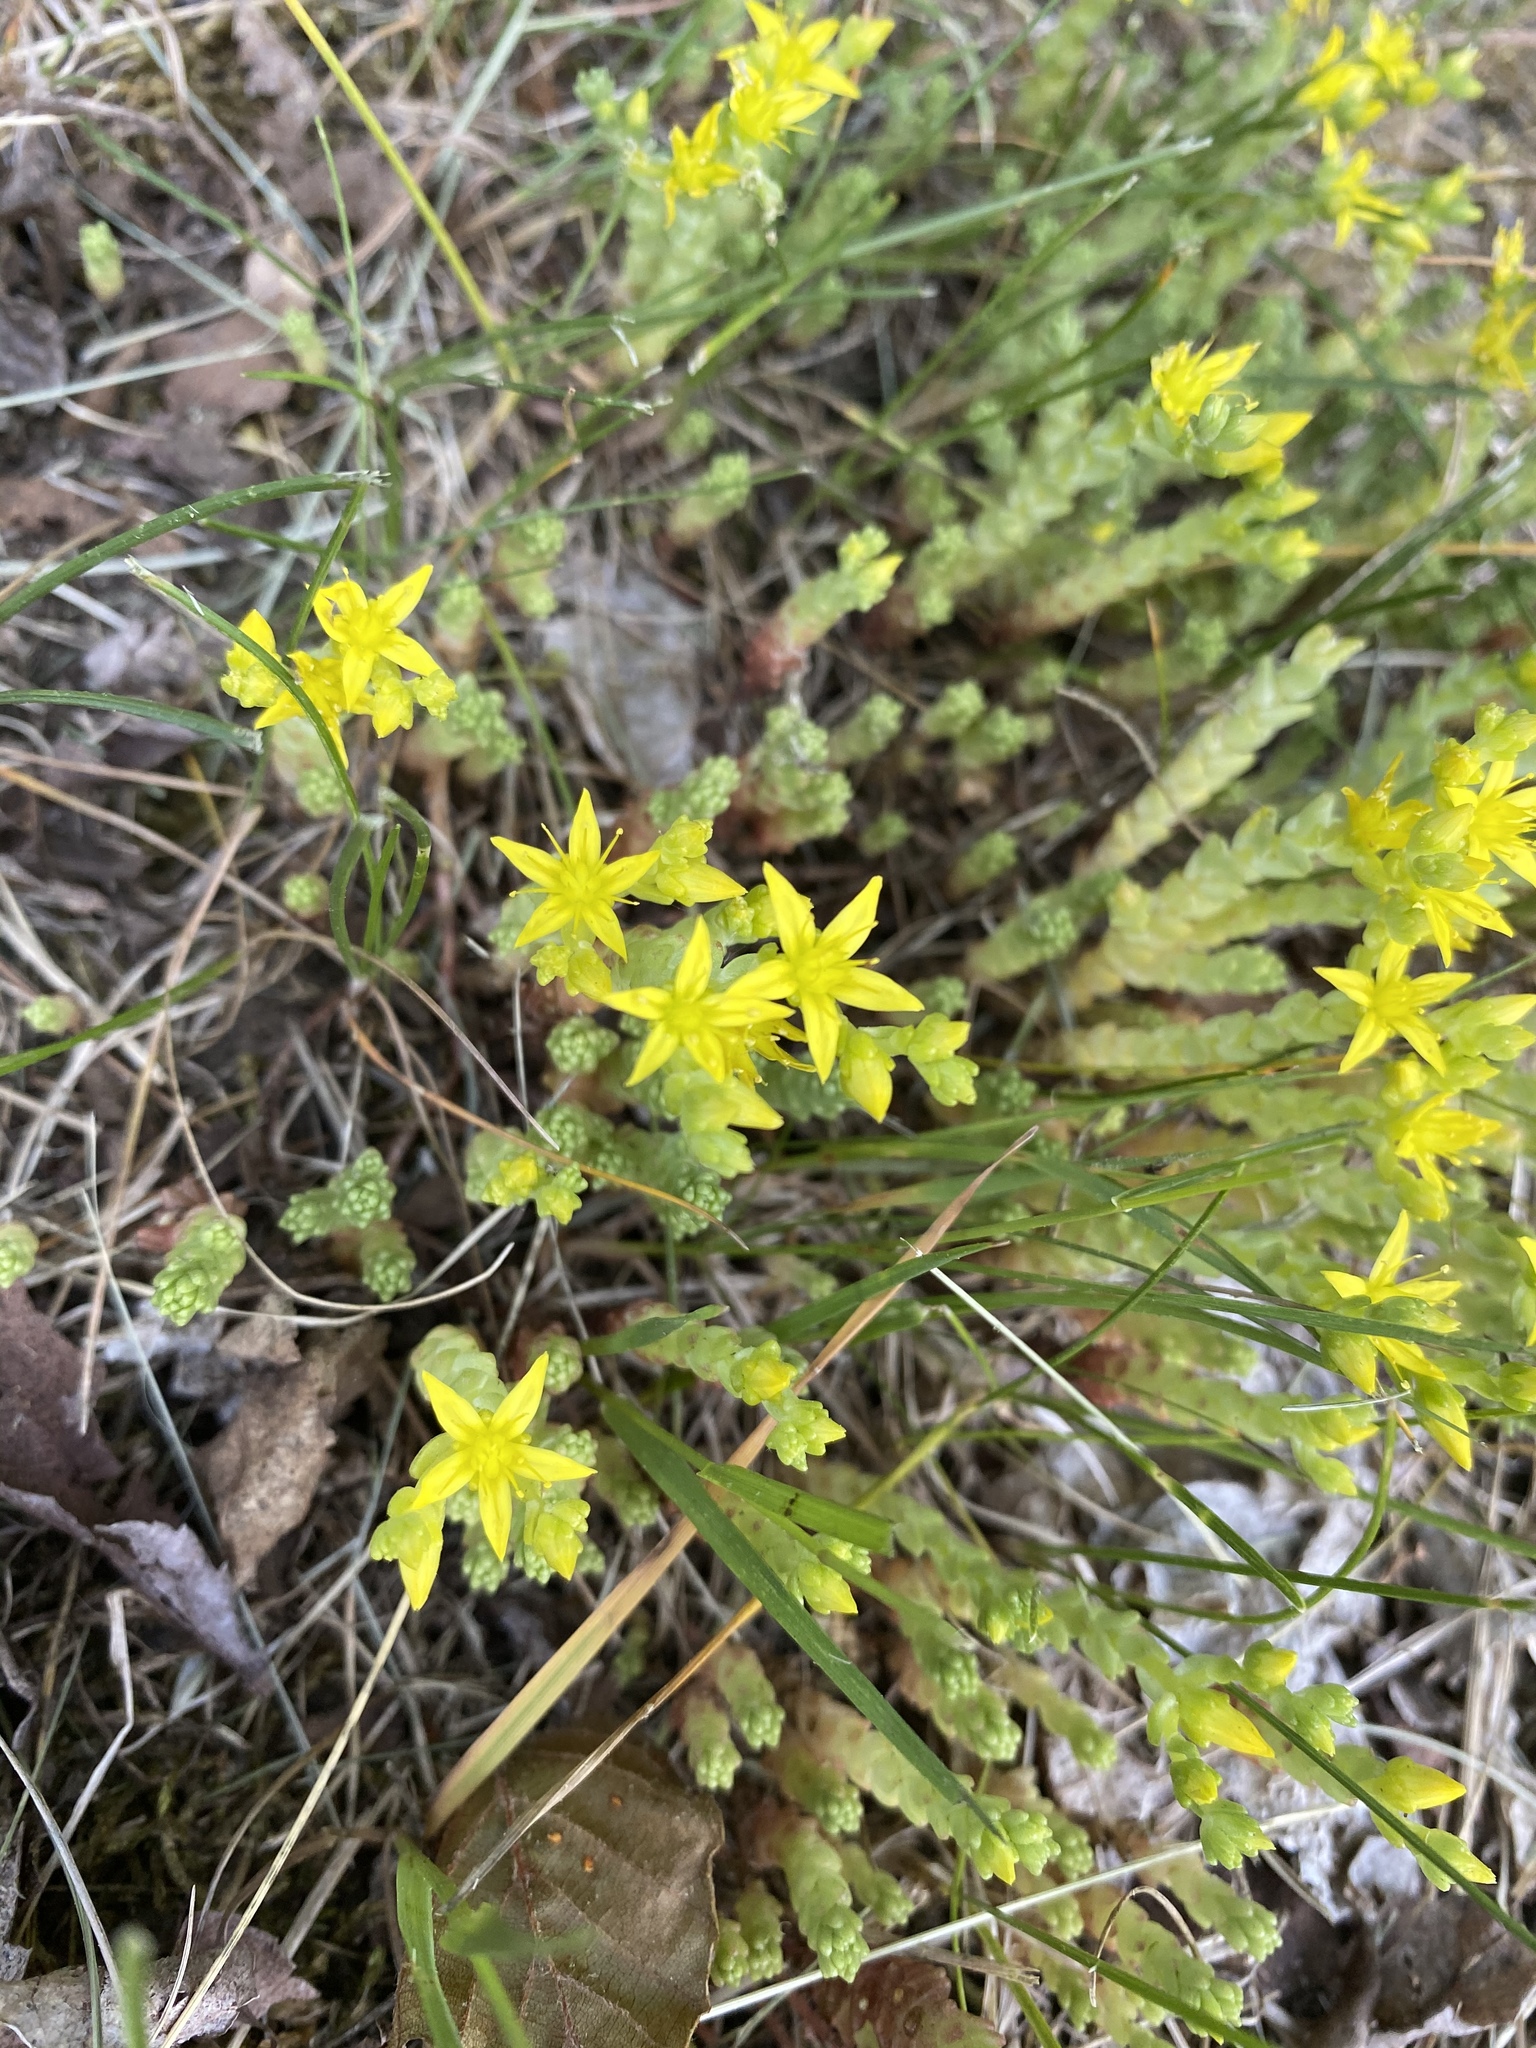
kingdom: Plantae
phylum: Tracheophyta
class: Magnoliopsida
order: Saxifragales
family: Crassulaceae
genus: Sedum
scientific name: Sedum acre
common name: Biting stonecrop
